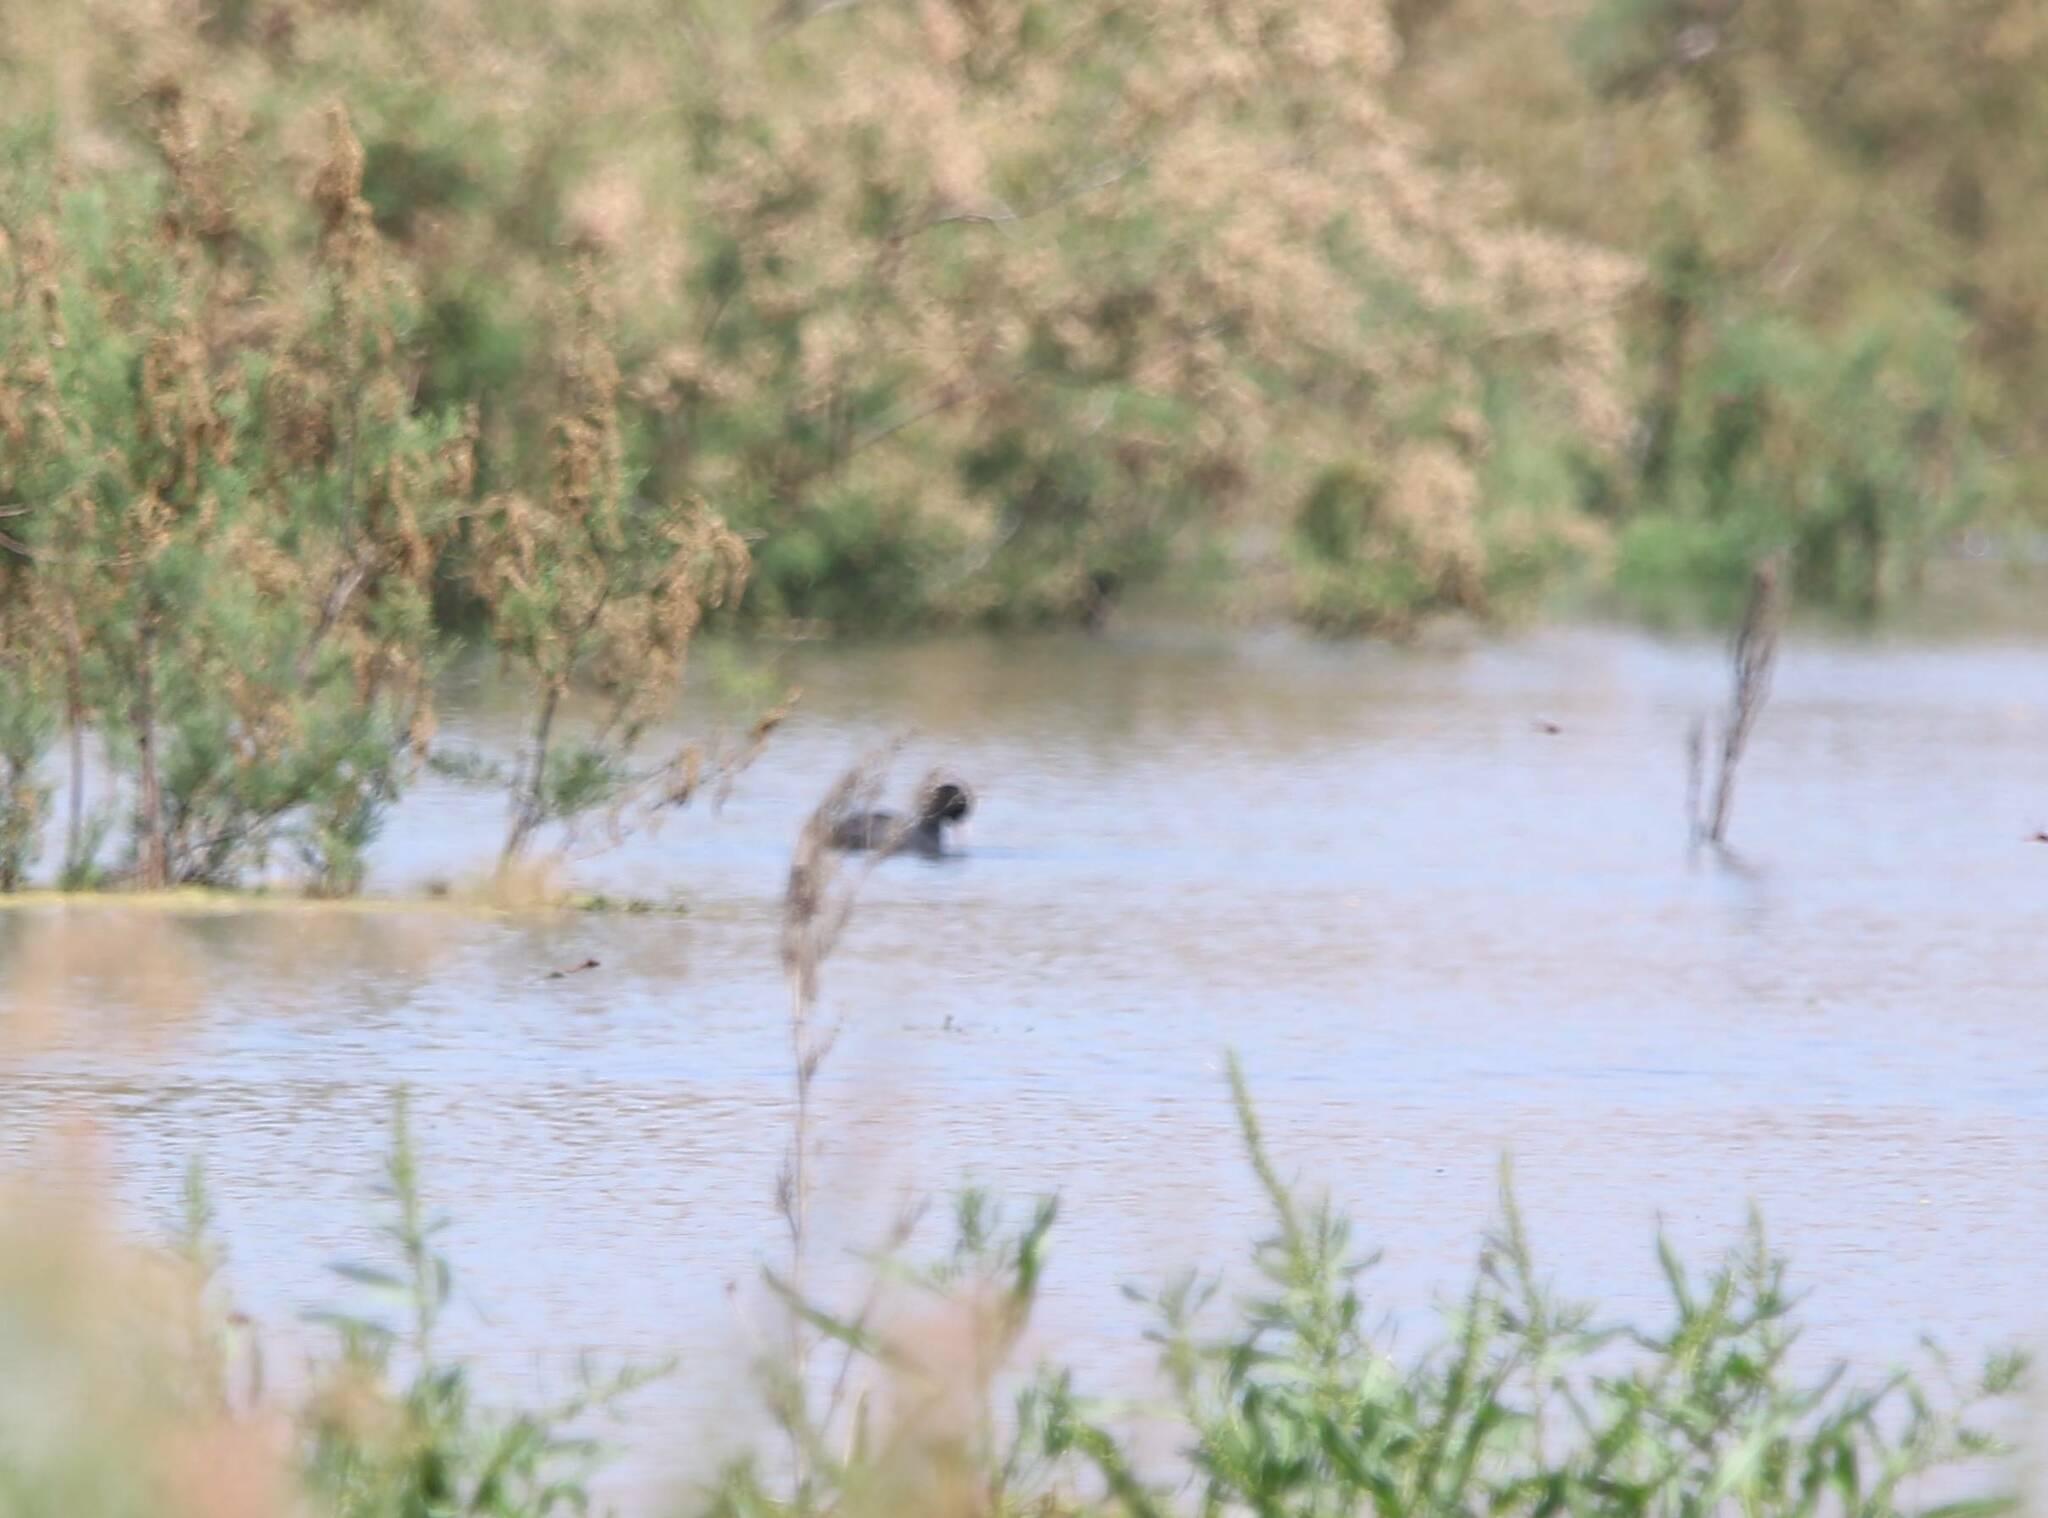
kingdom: Animalia
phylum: Chordata
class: Aves
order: Gruiformes
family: Rallidae
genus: Fulica
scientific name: Fulica atra
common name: Eurasian coot
